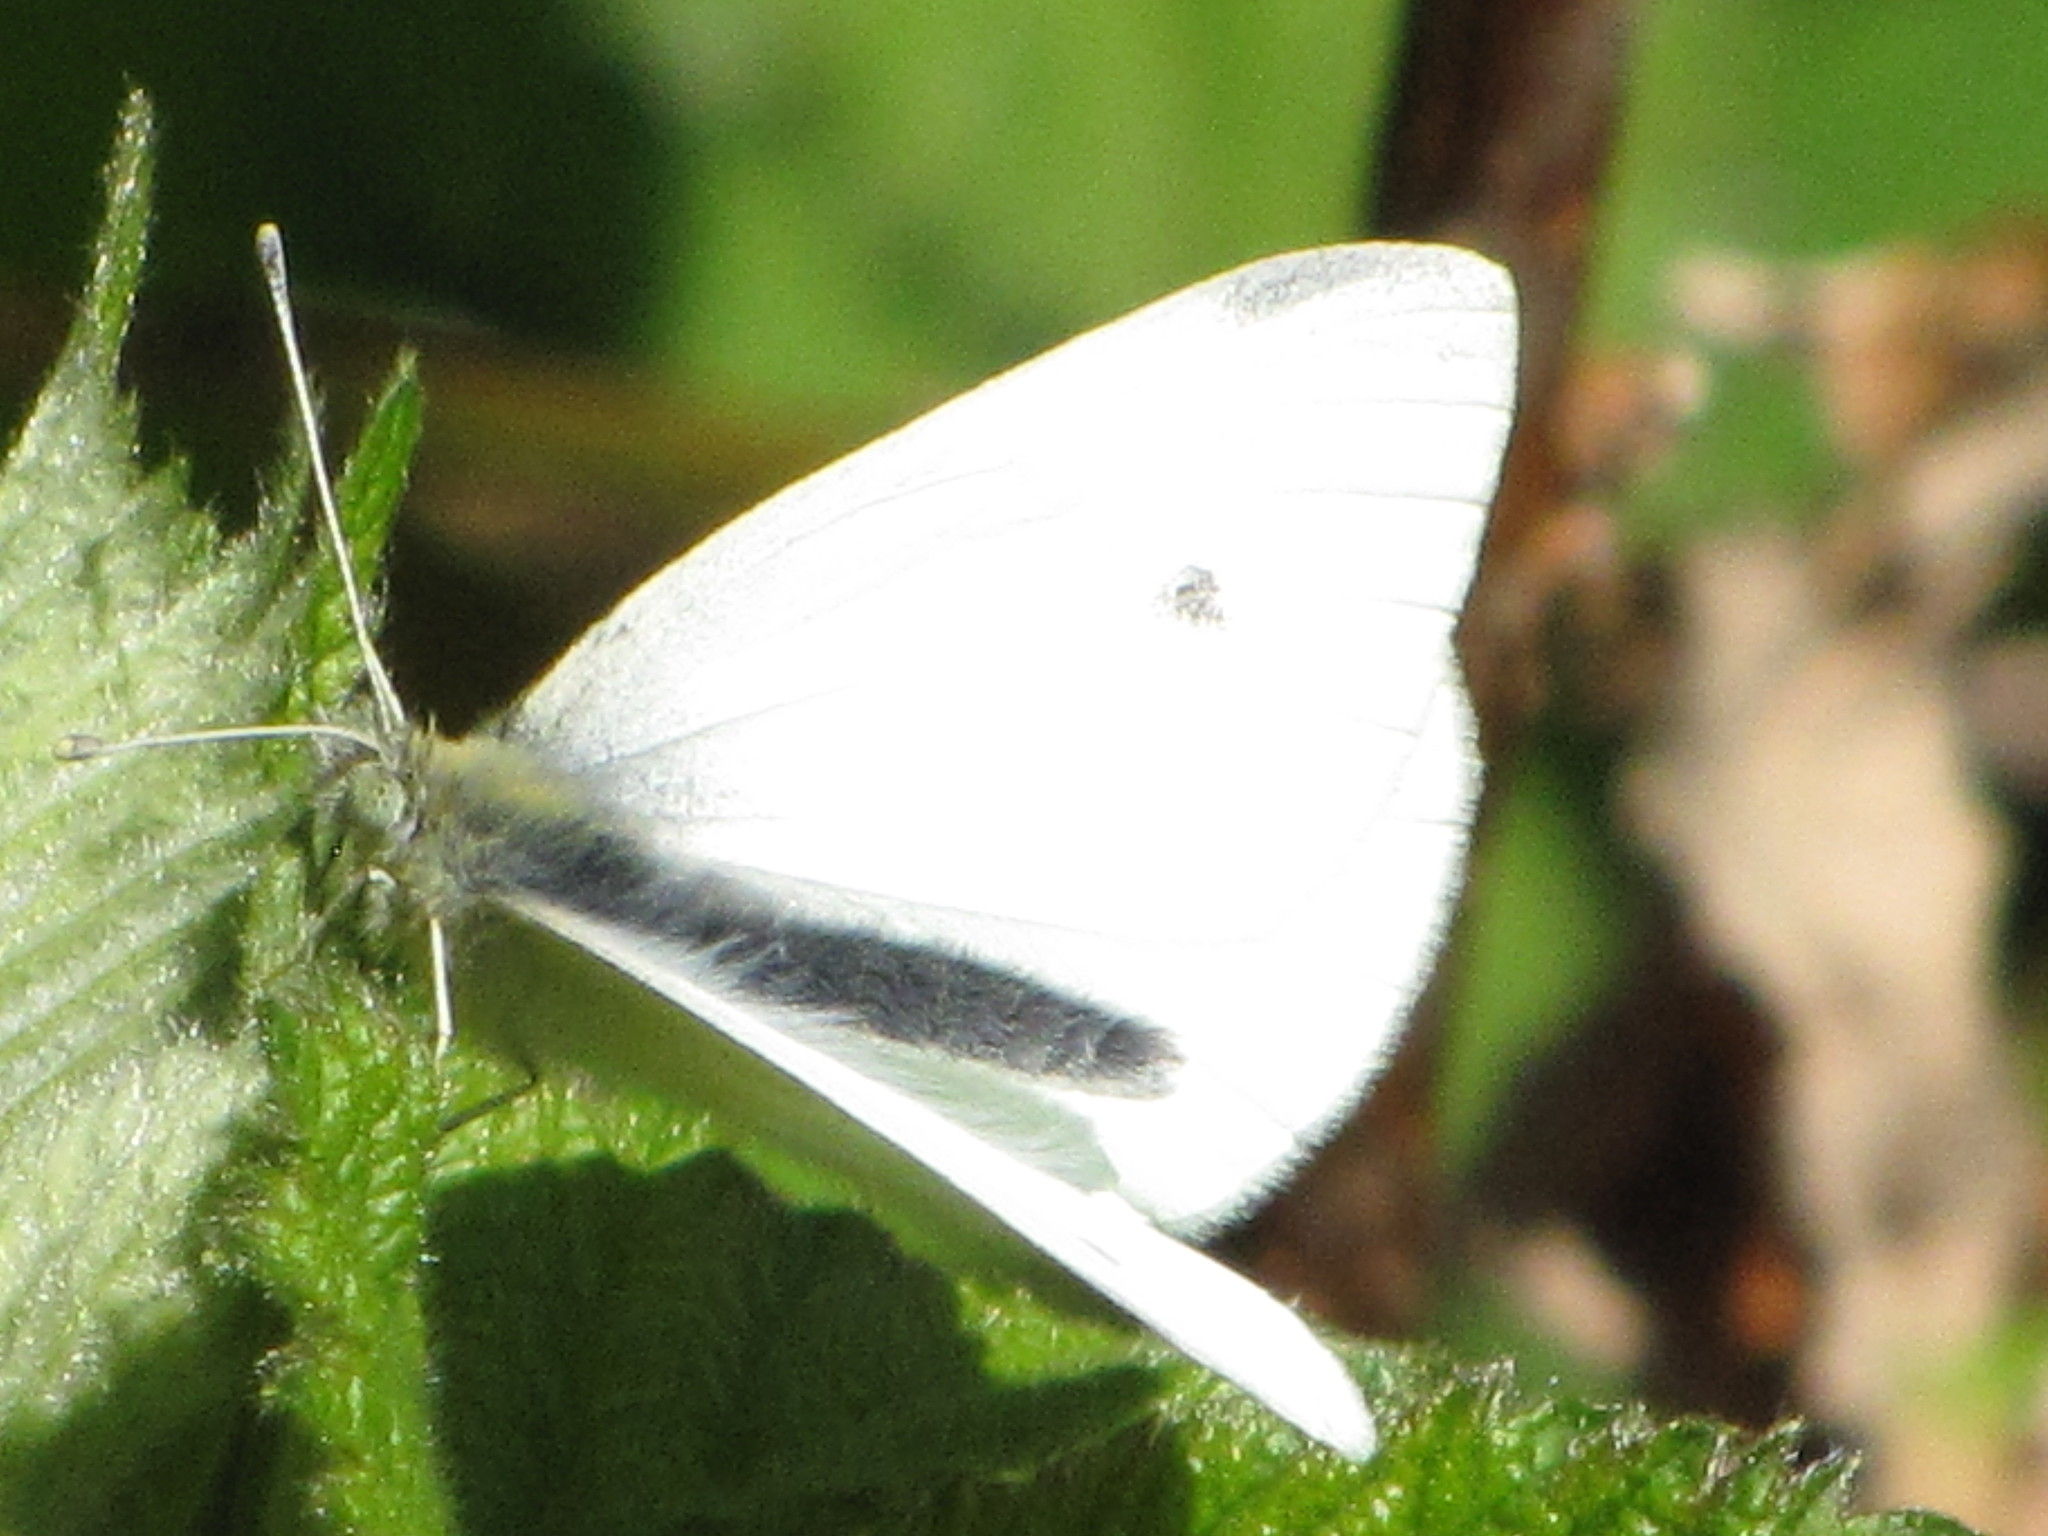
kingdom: Animalia
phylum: Arthropoda
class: Insecta
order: Lepidoptera
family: Pieridae
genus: Pieris
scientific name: Pieris rapae
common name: Small white
